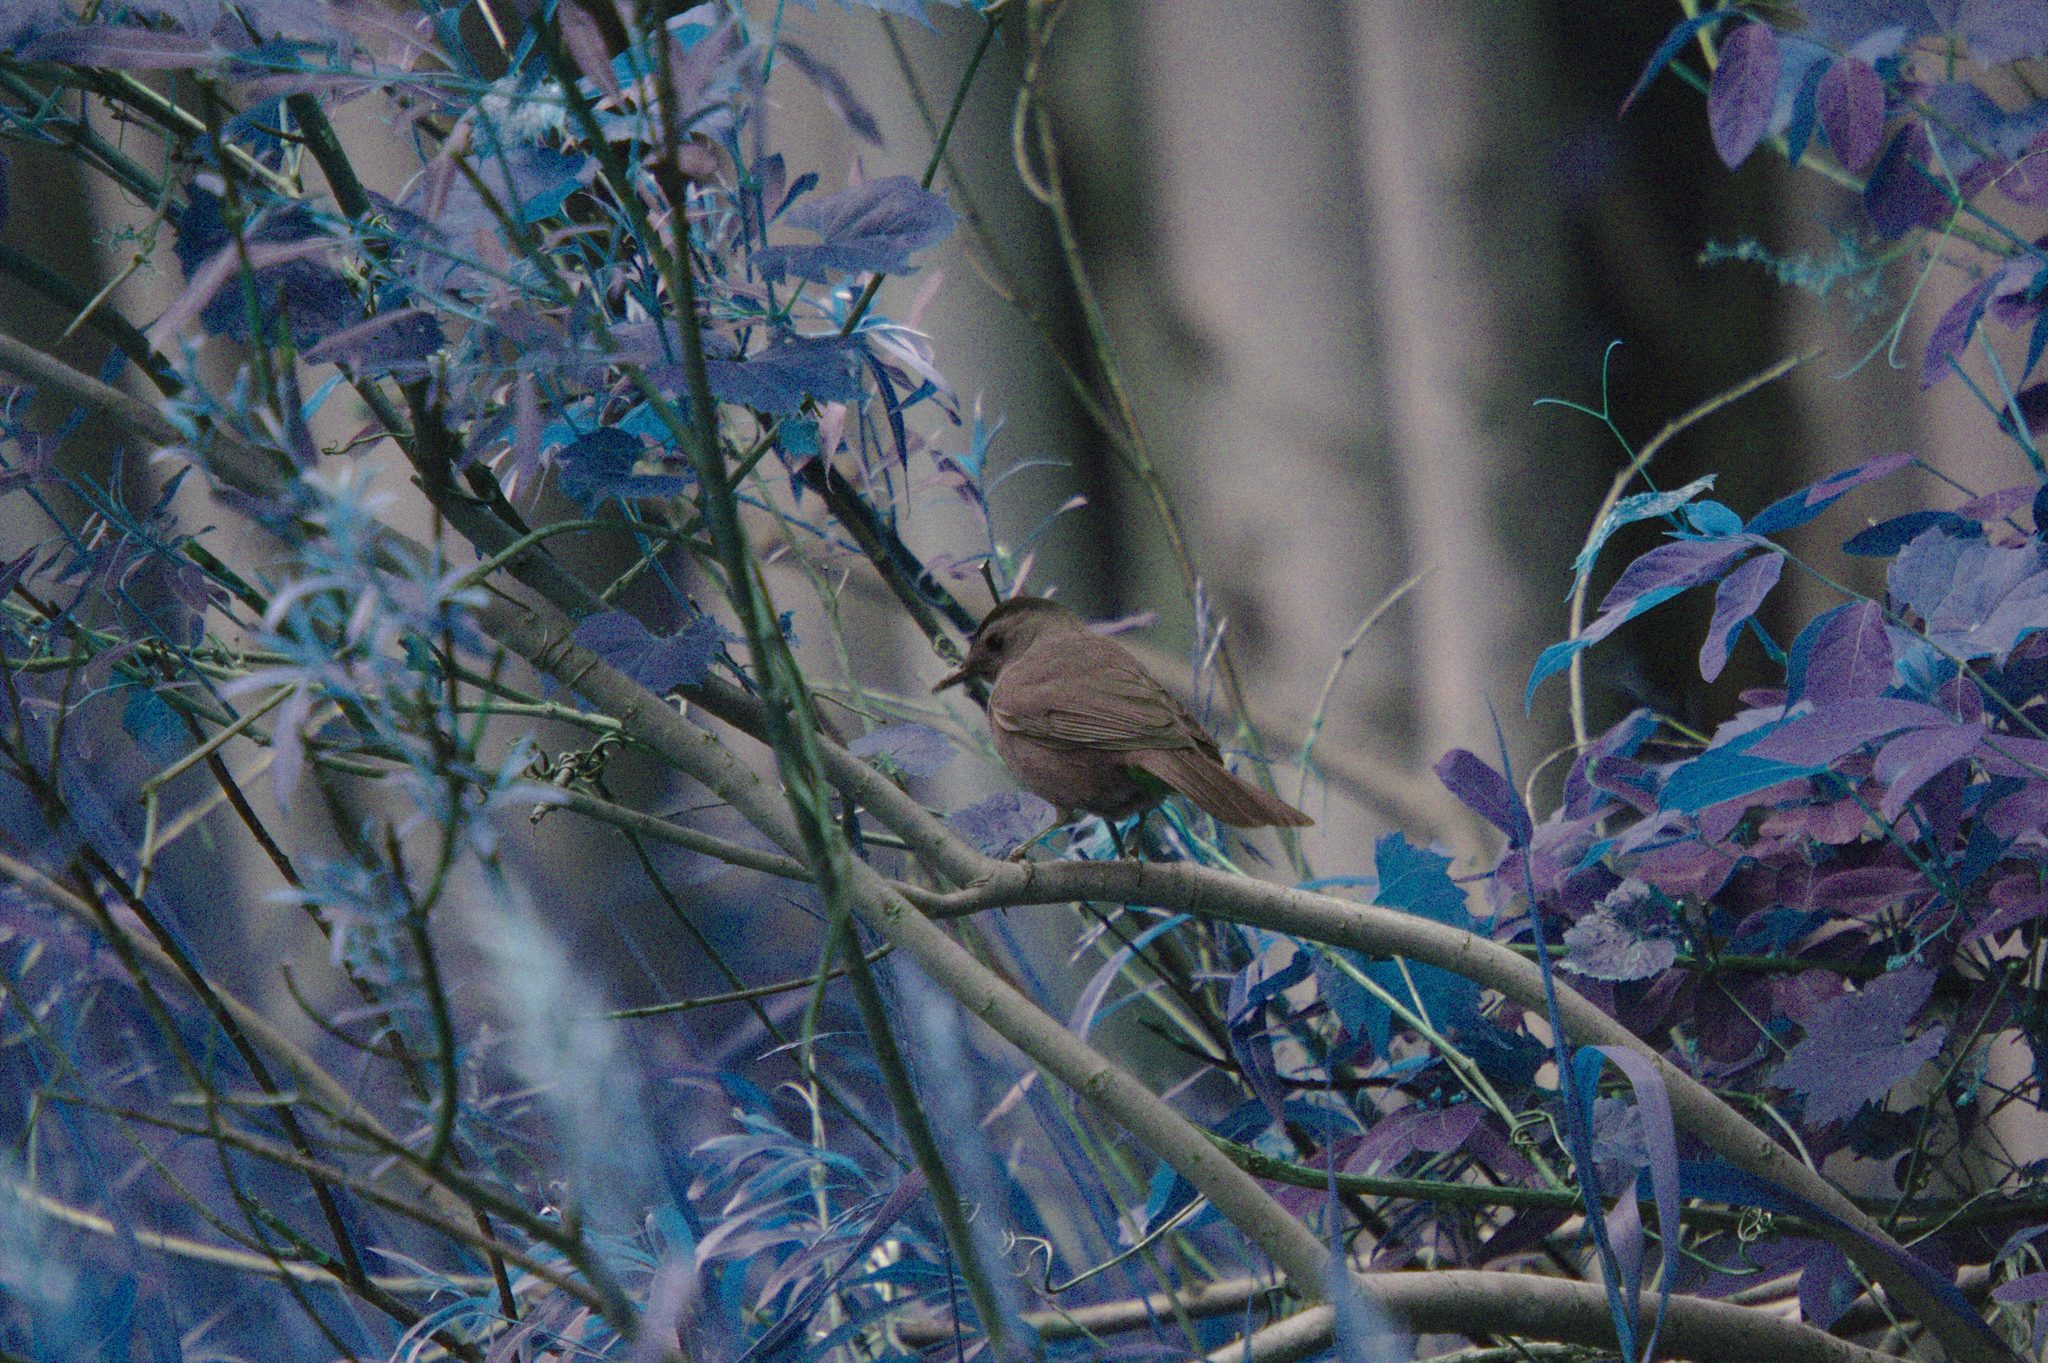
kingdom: Animalia
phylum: Chordata
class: Aves
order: Passeriformes
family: Mimidae
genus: Dumetella
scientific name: Dumetella carolinensis
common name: Gray catbird
